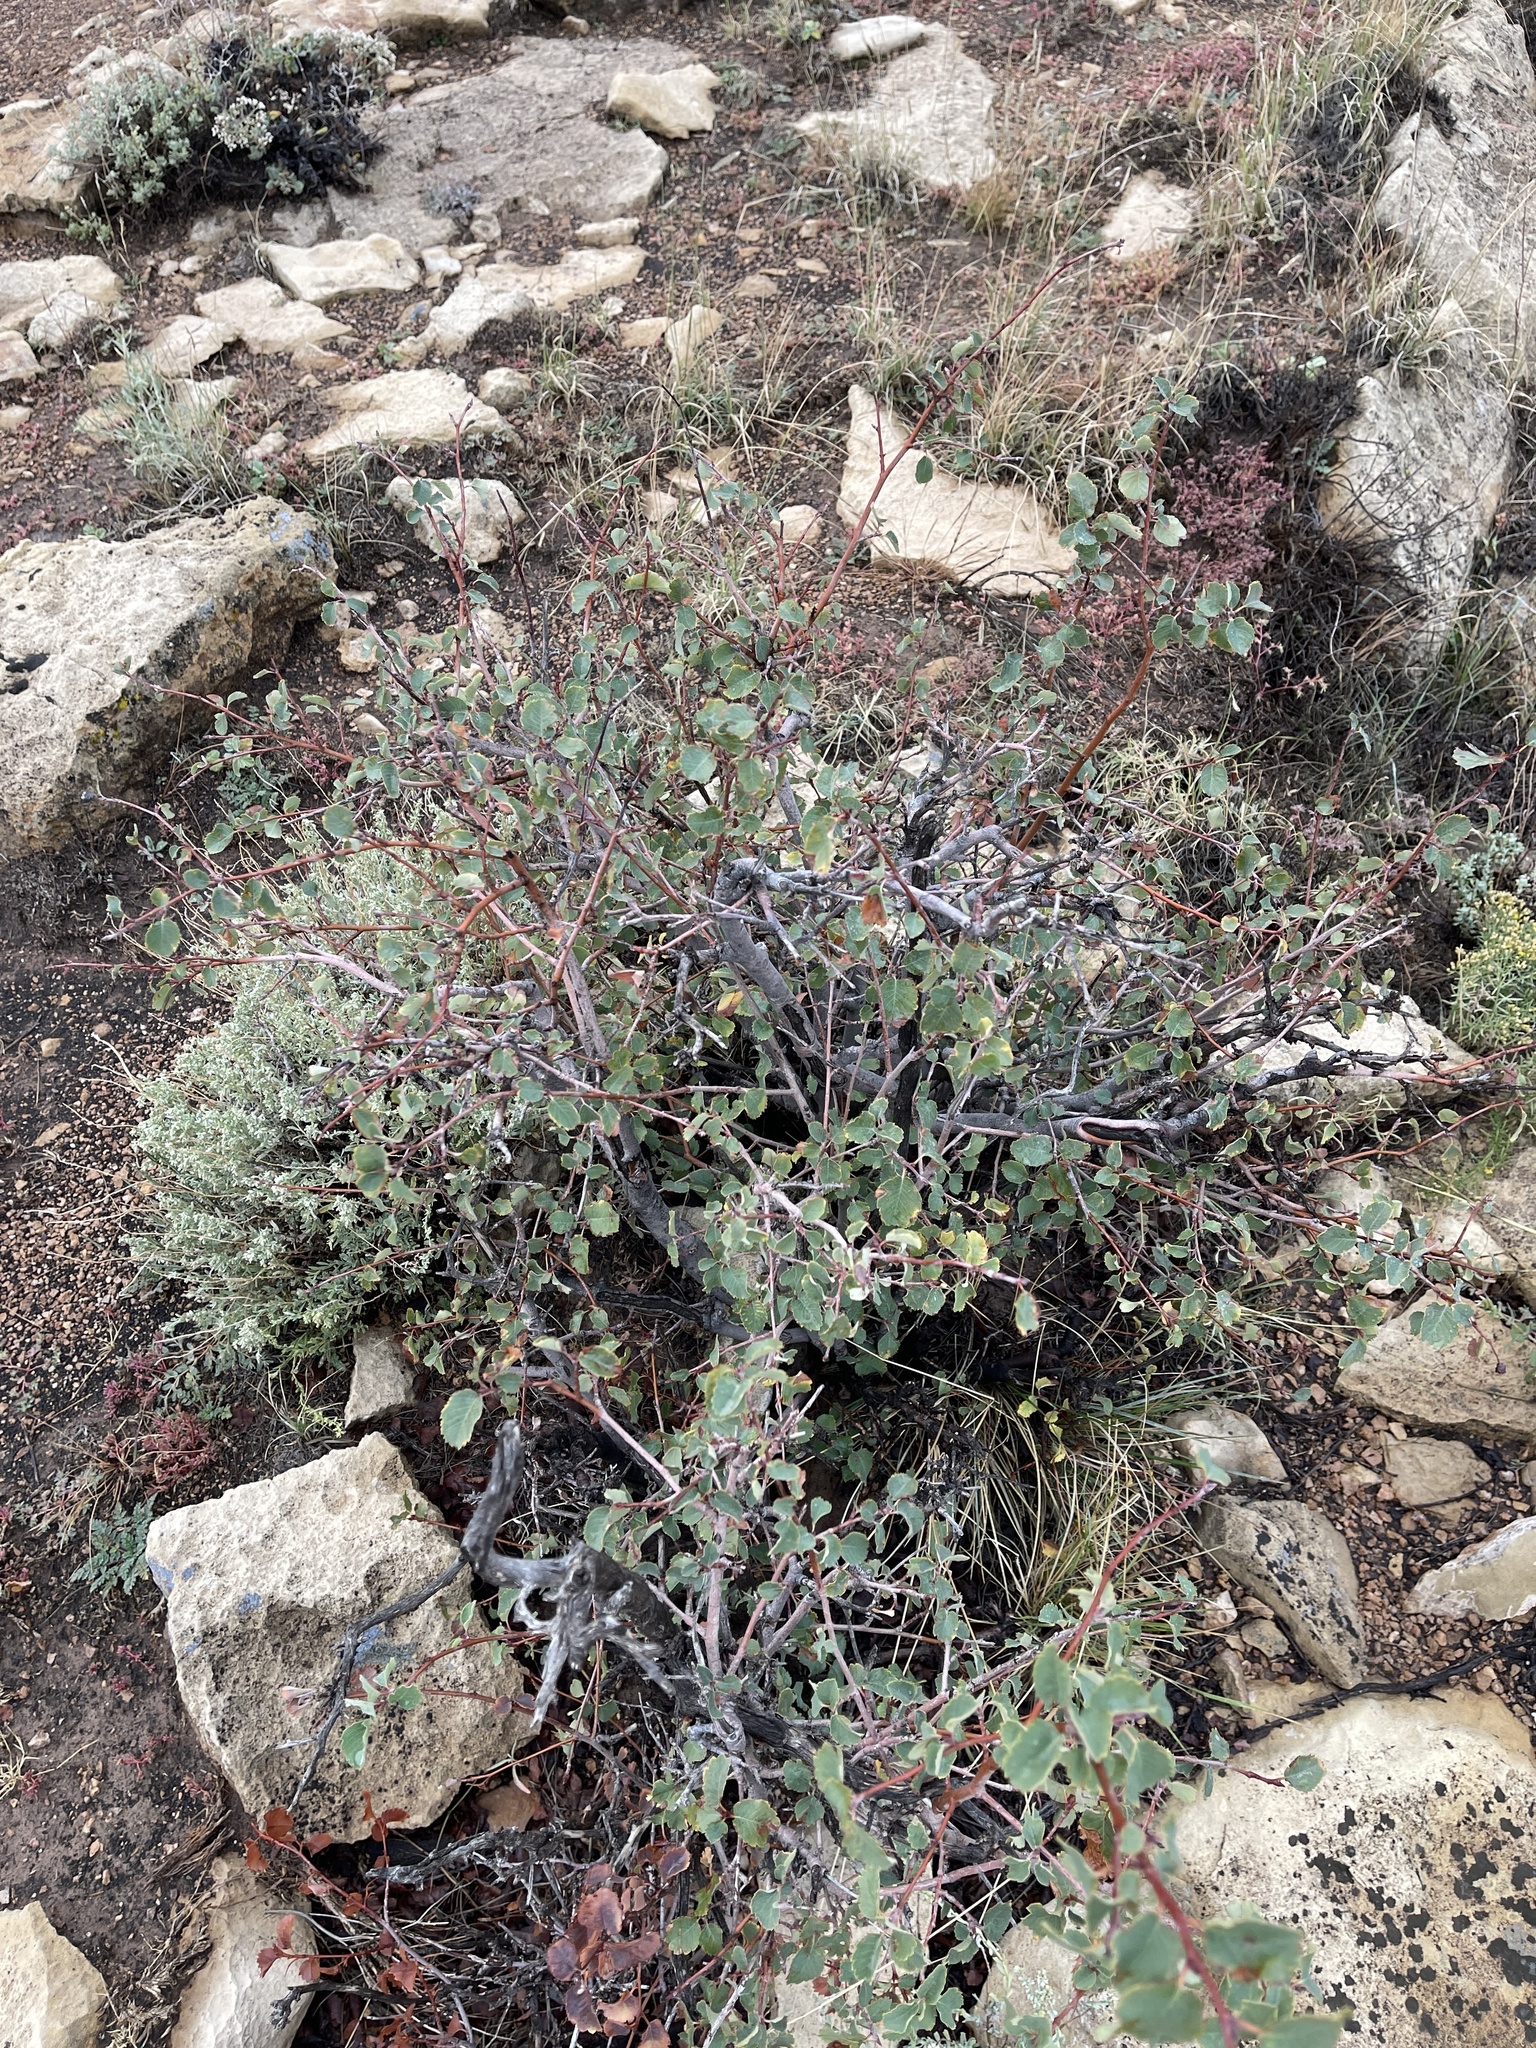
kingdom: Plantae
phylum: Tracheophyta
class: Magnoliopsida
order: Rosales
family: Rosaceae
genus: Amelanchier
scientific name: Amelanchier utahensis
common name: Utah serviceberry
